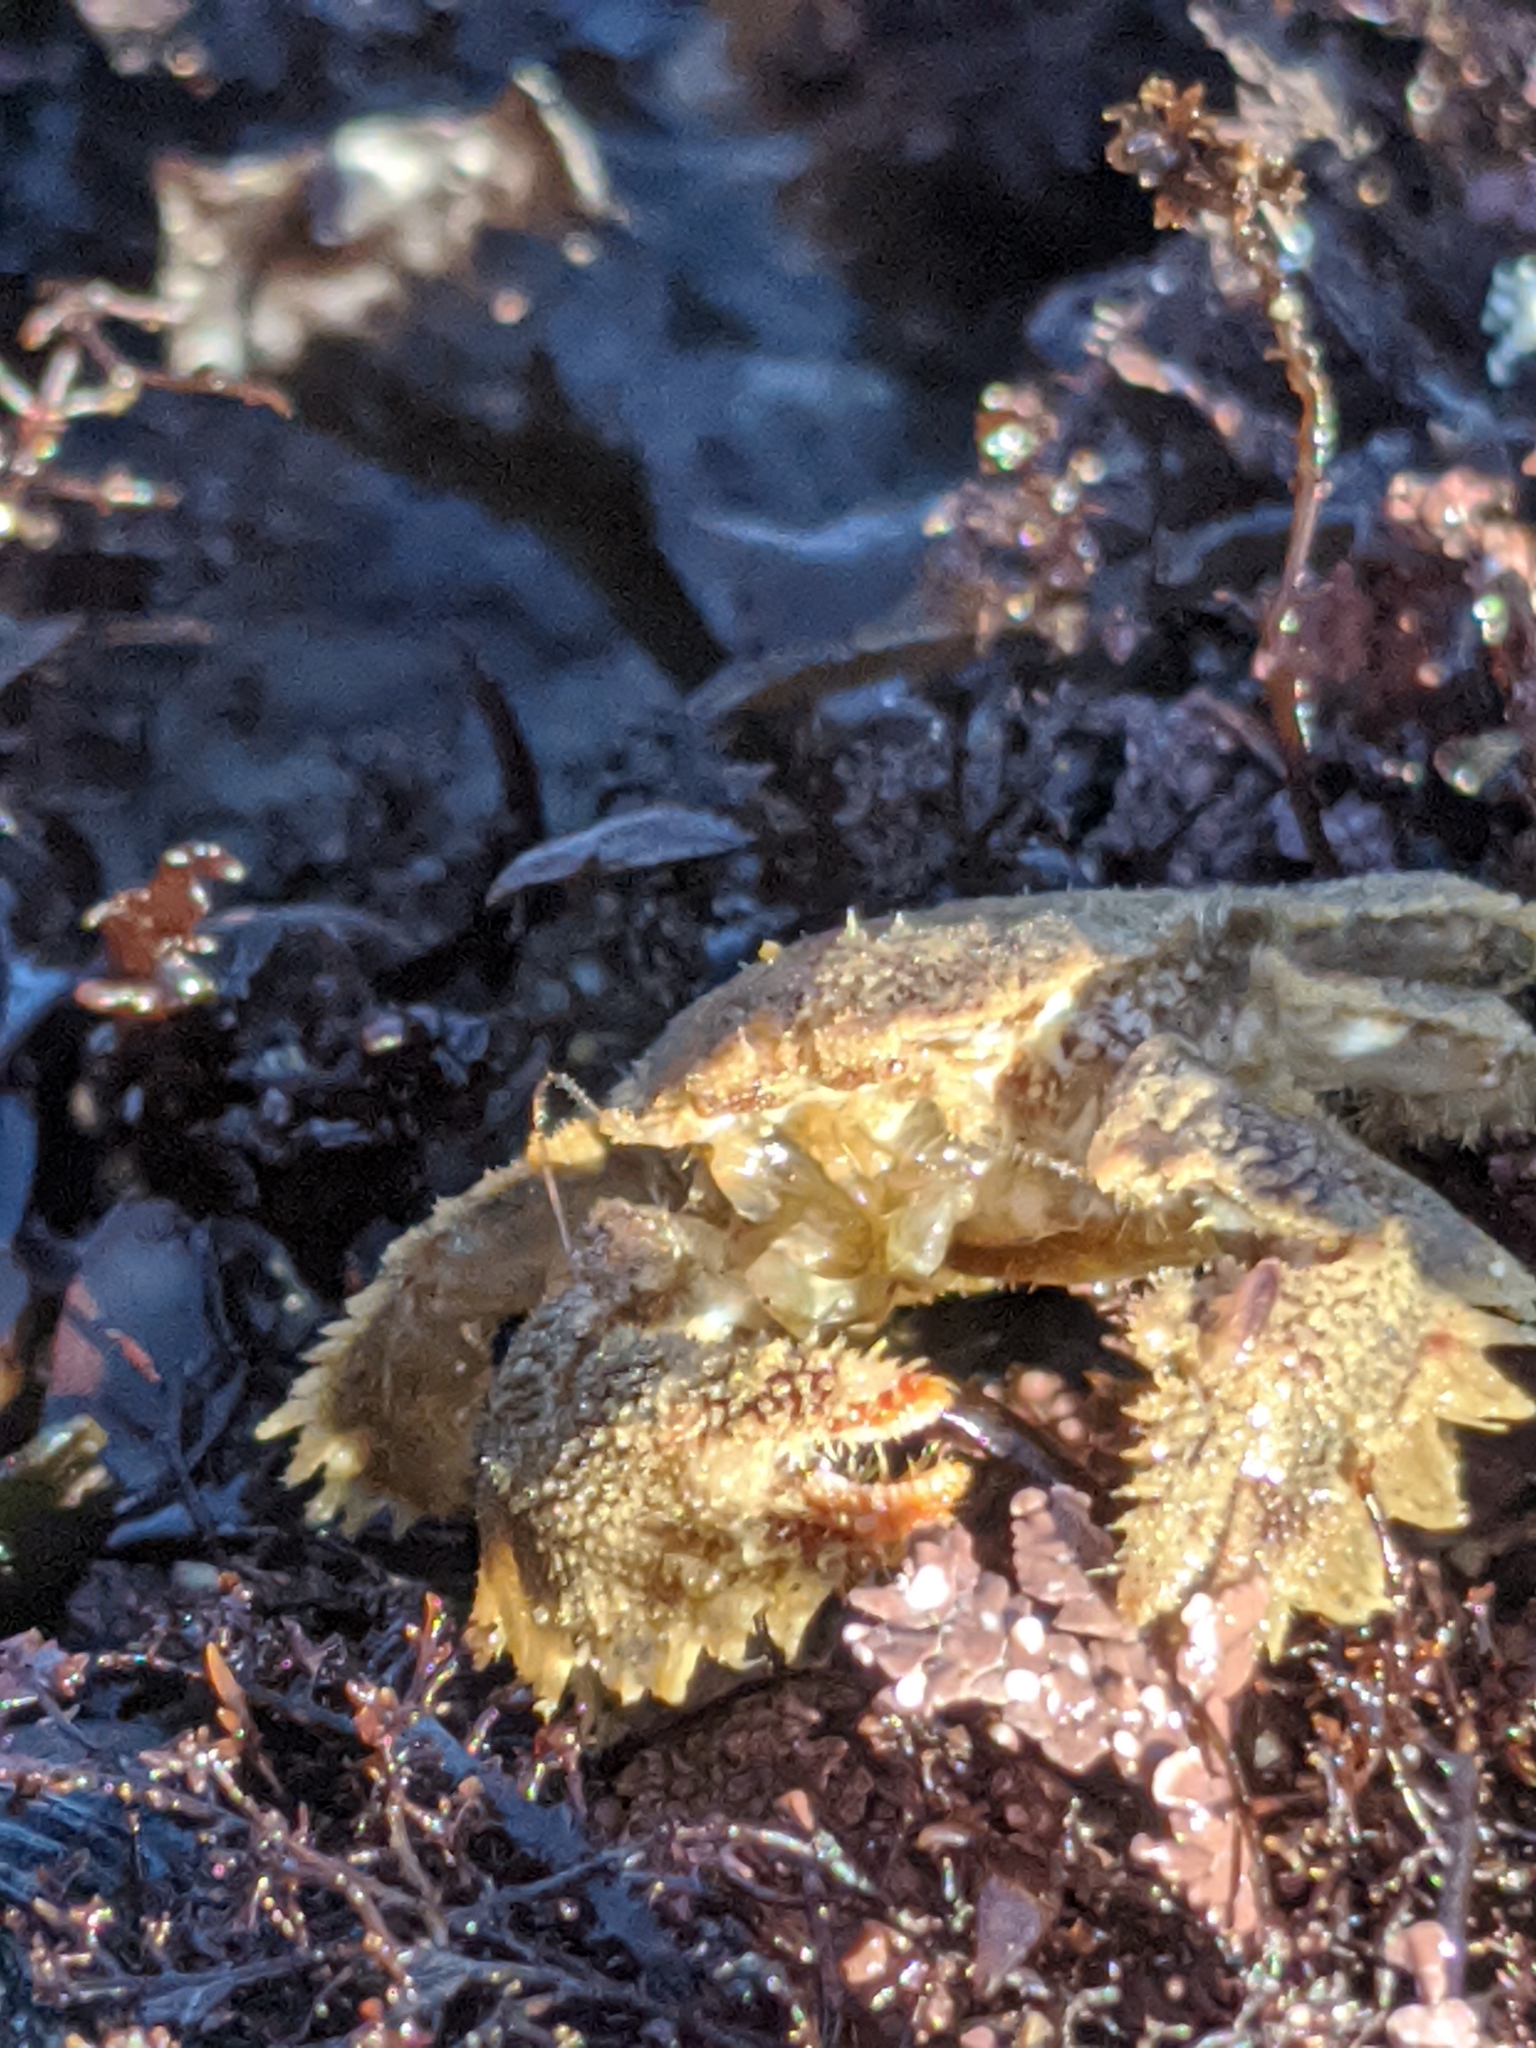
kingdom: Animalia
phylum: Arthropoda
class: Malacostraca
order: Decapoda
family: Hapalogastridae
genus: Hapalogaster
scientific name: Hapalogaster cavicauda
